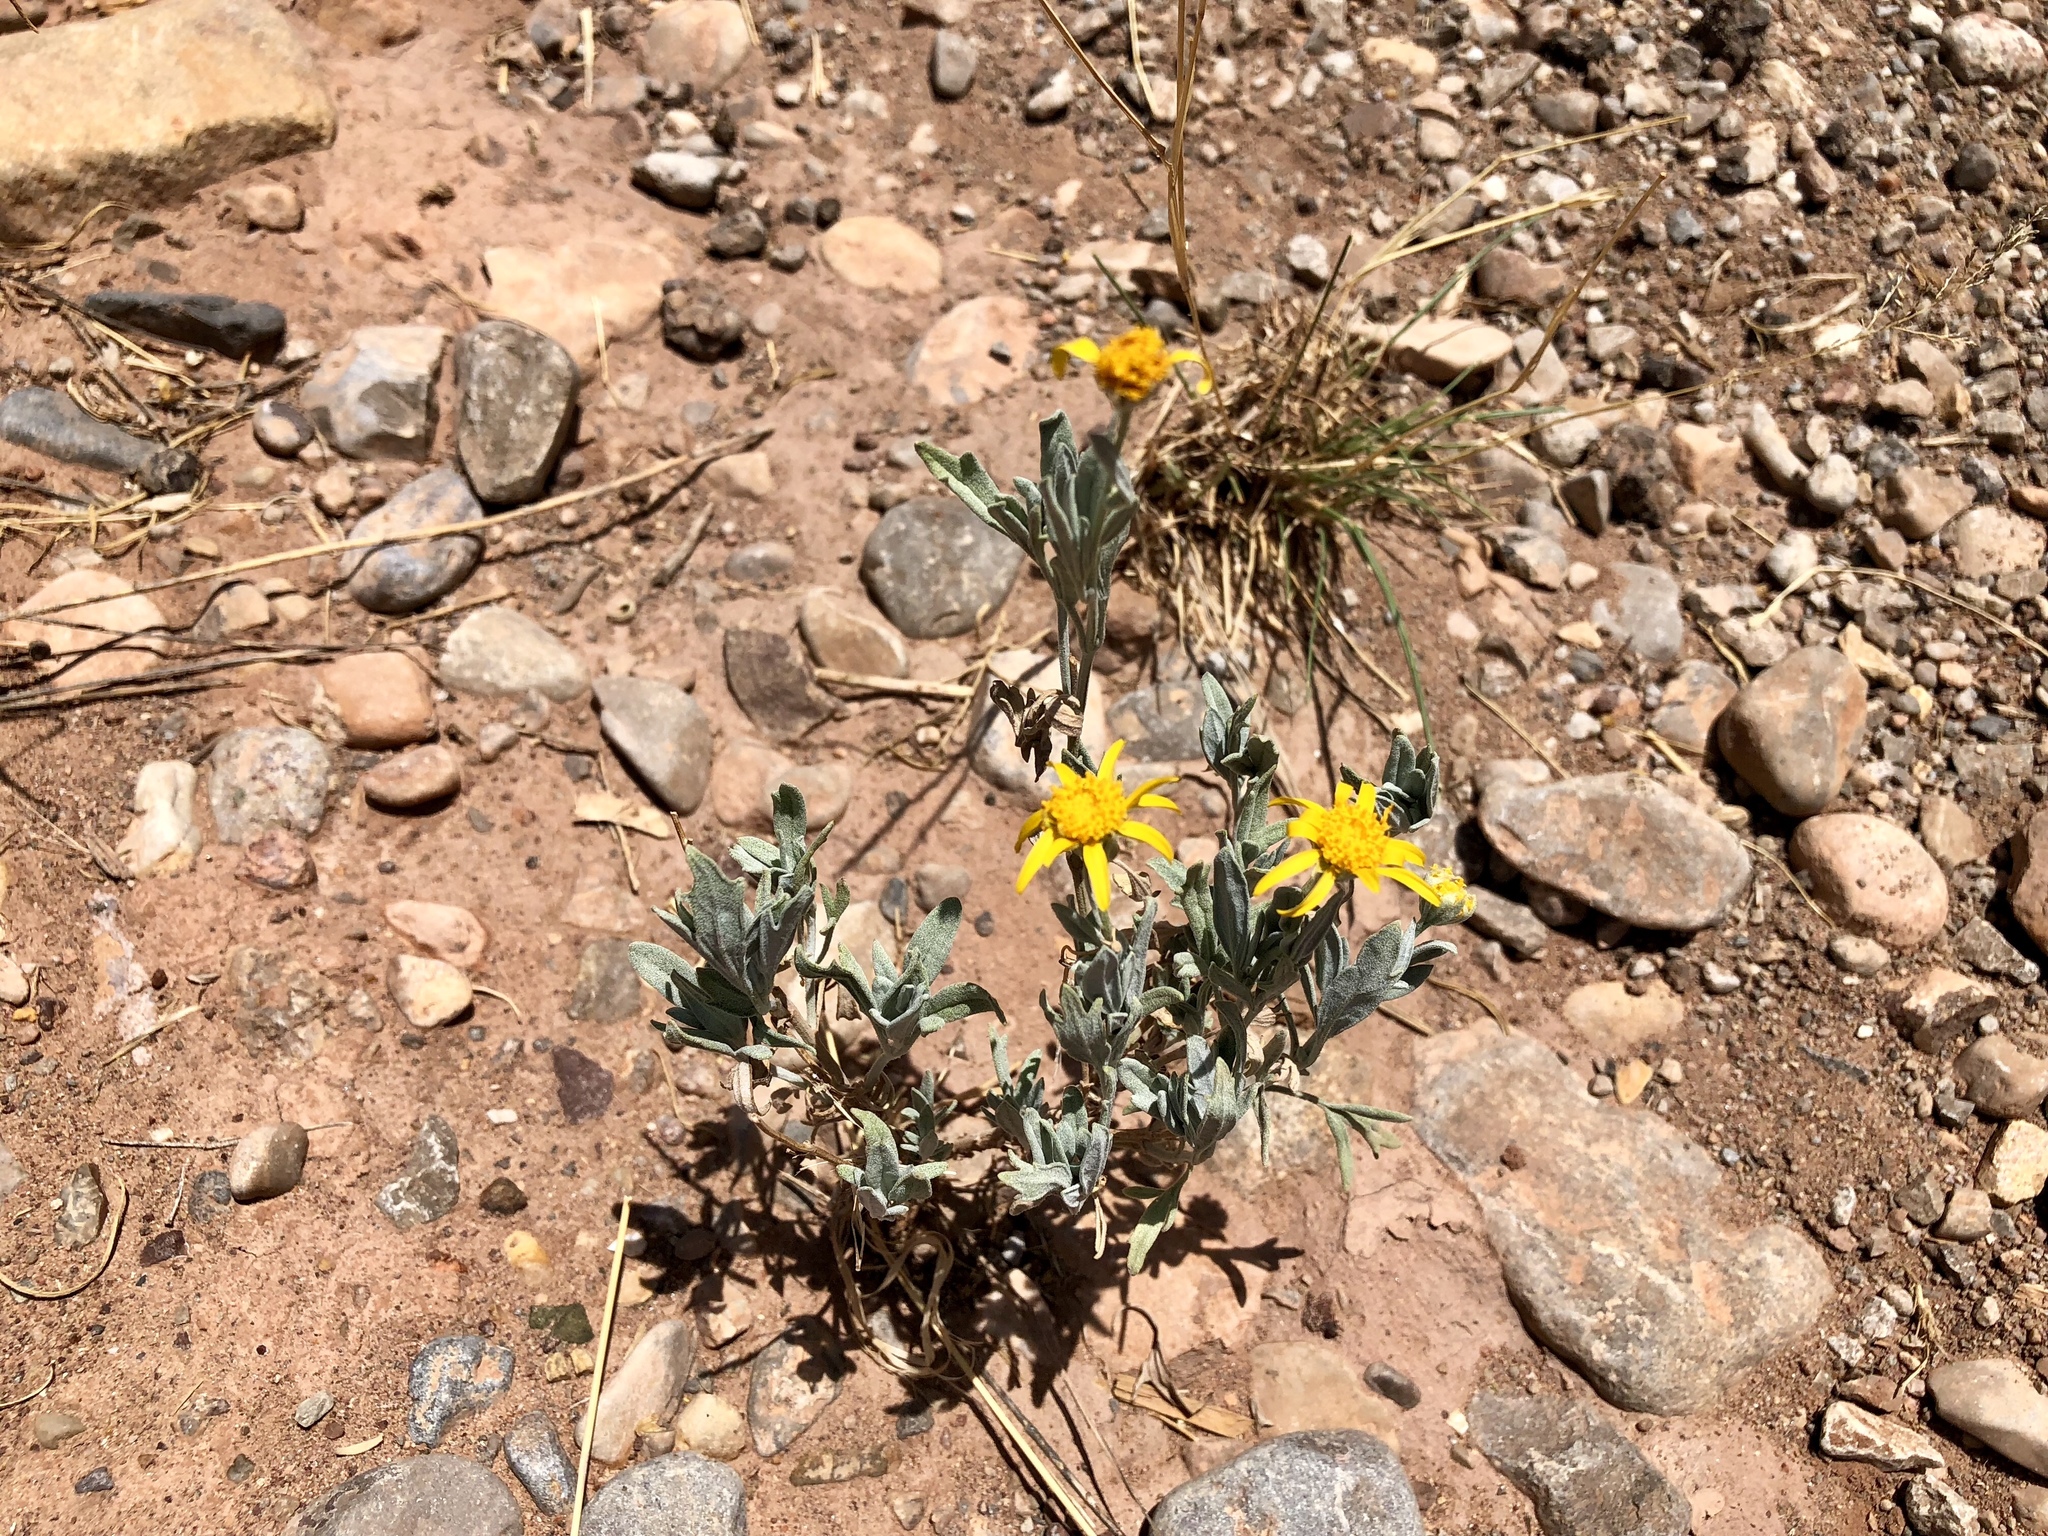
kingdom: Plantae
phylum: Tracheophyta
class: Magnoliopsida
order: Asterales
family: Asteraceae
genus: Picradeniopsis
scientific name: Picradeniopsis absinthifolia
